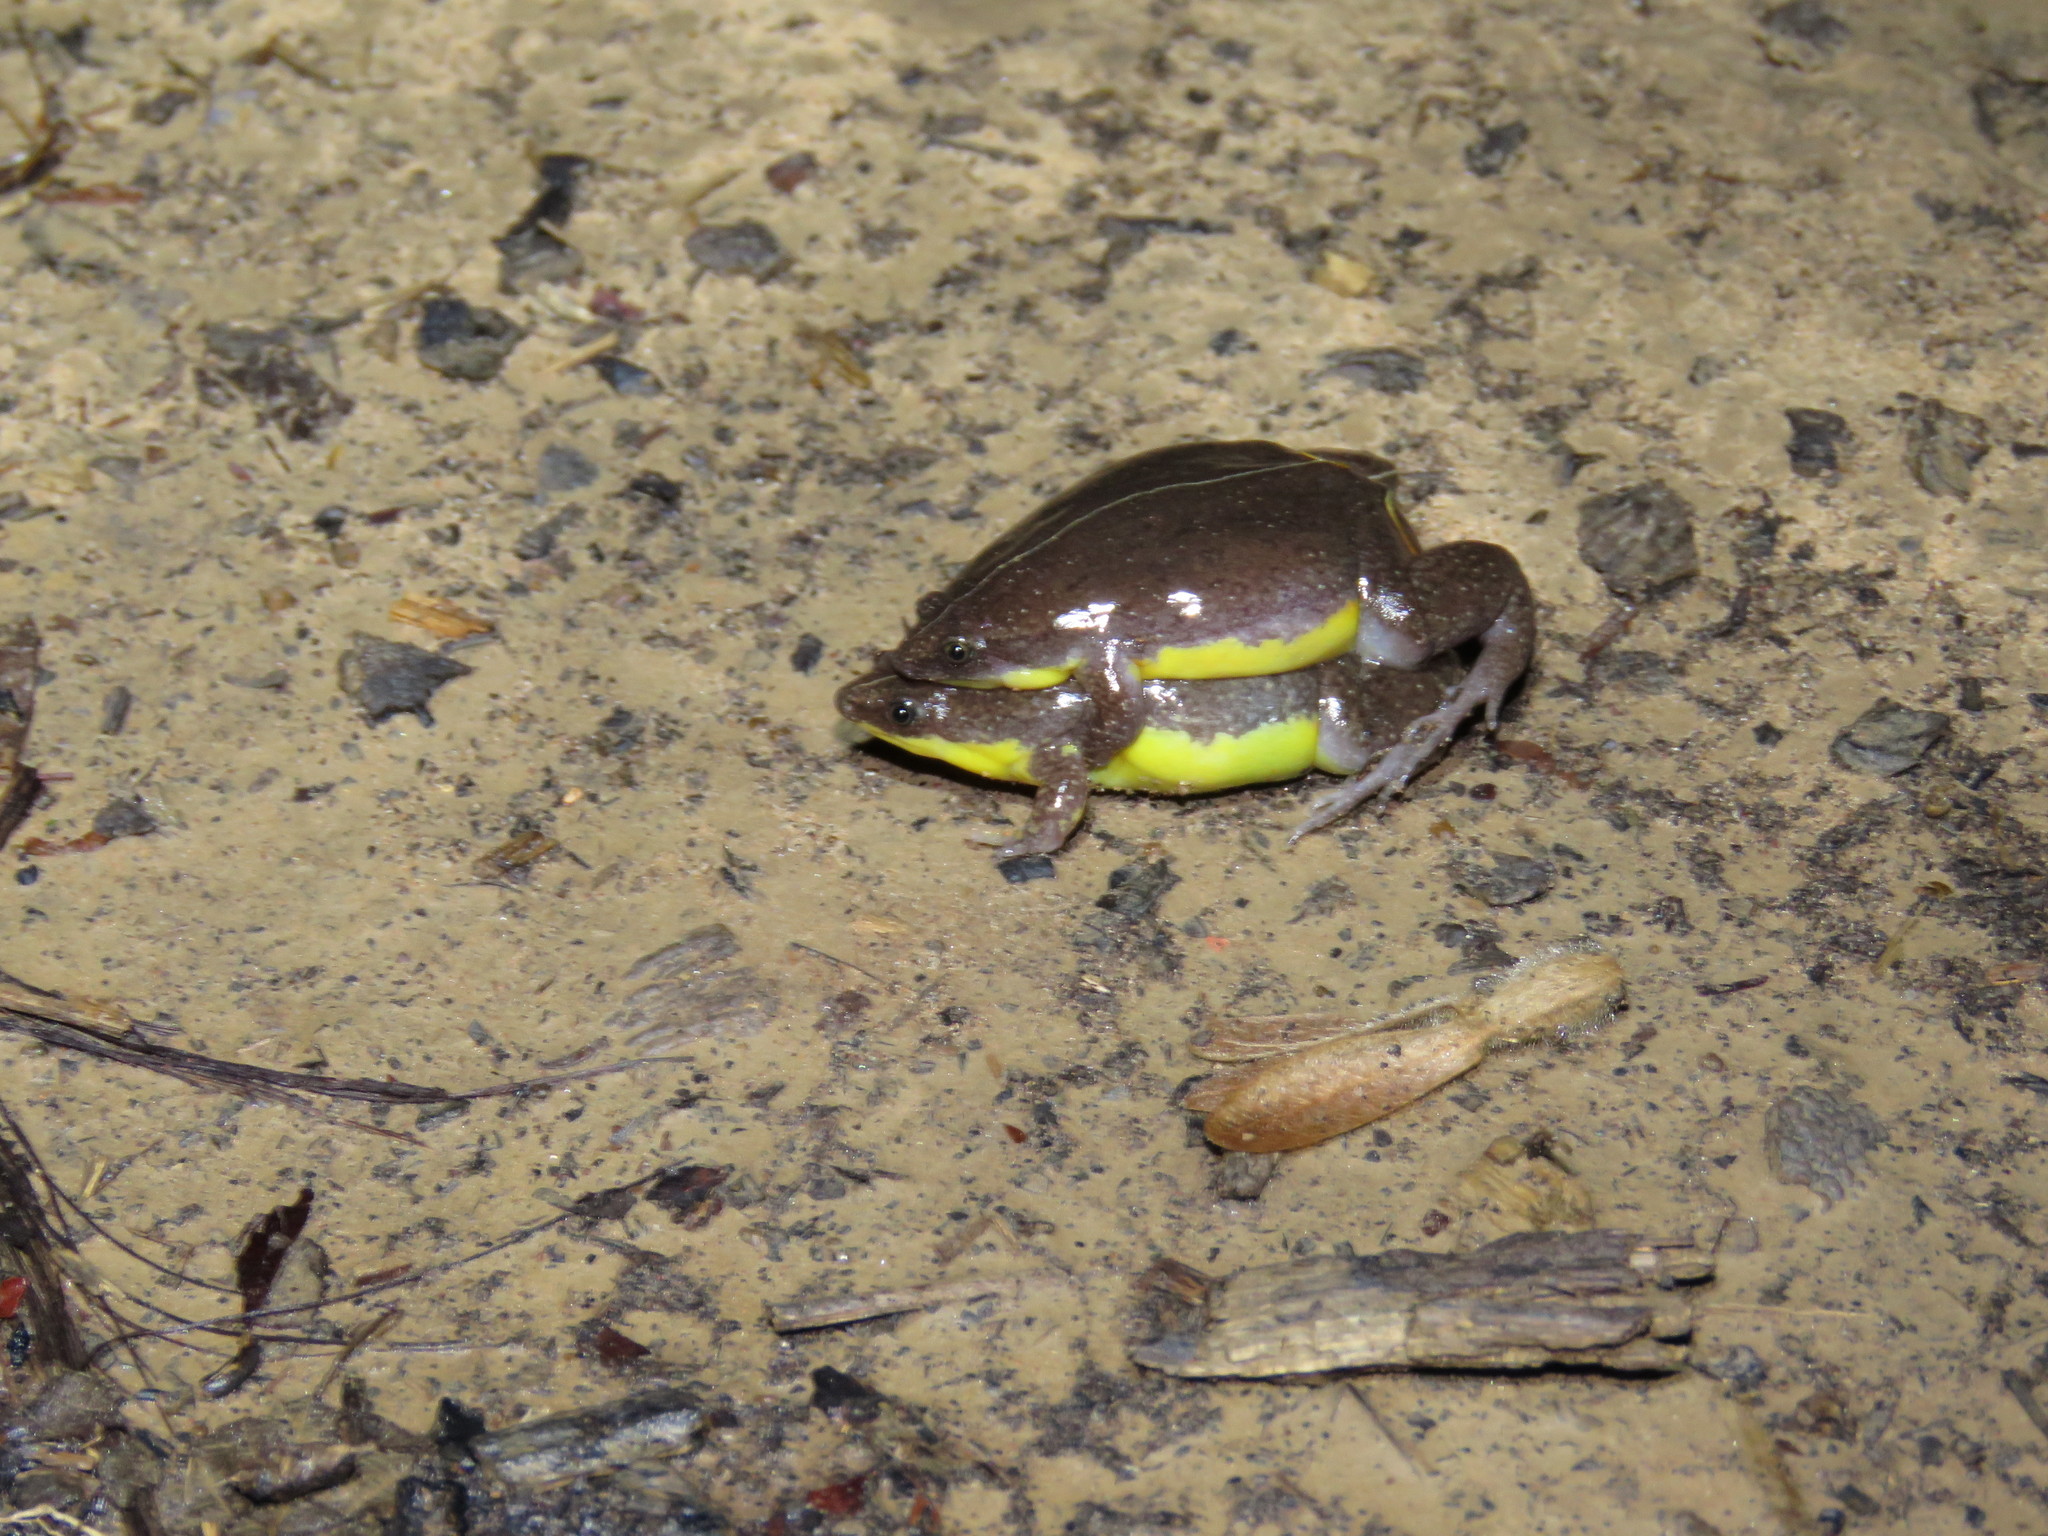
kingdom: Animalia
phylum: Chordata
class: Amphibia
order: Anura
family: Microhylidae
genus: Elachistocleis
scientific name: Elachistocleis helianneae
